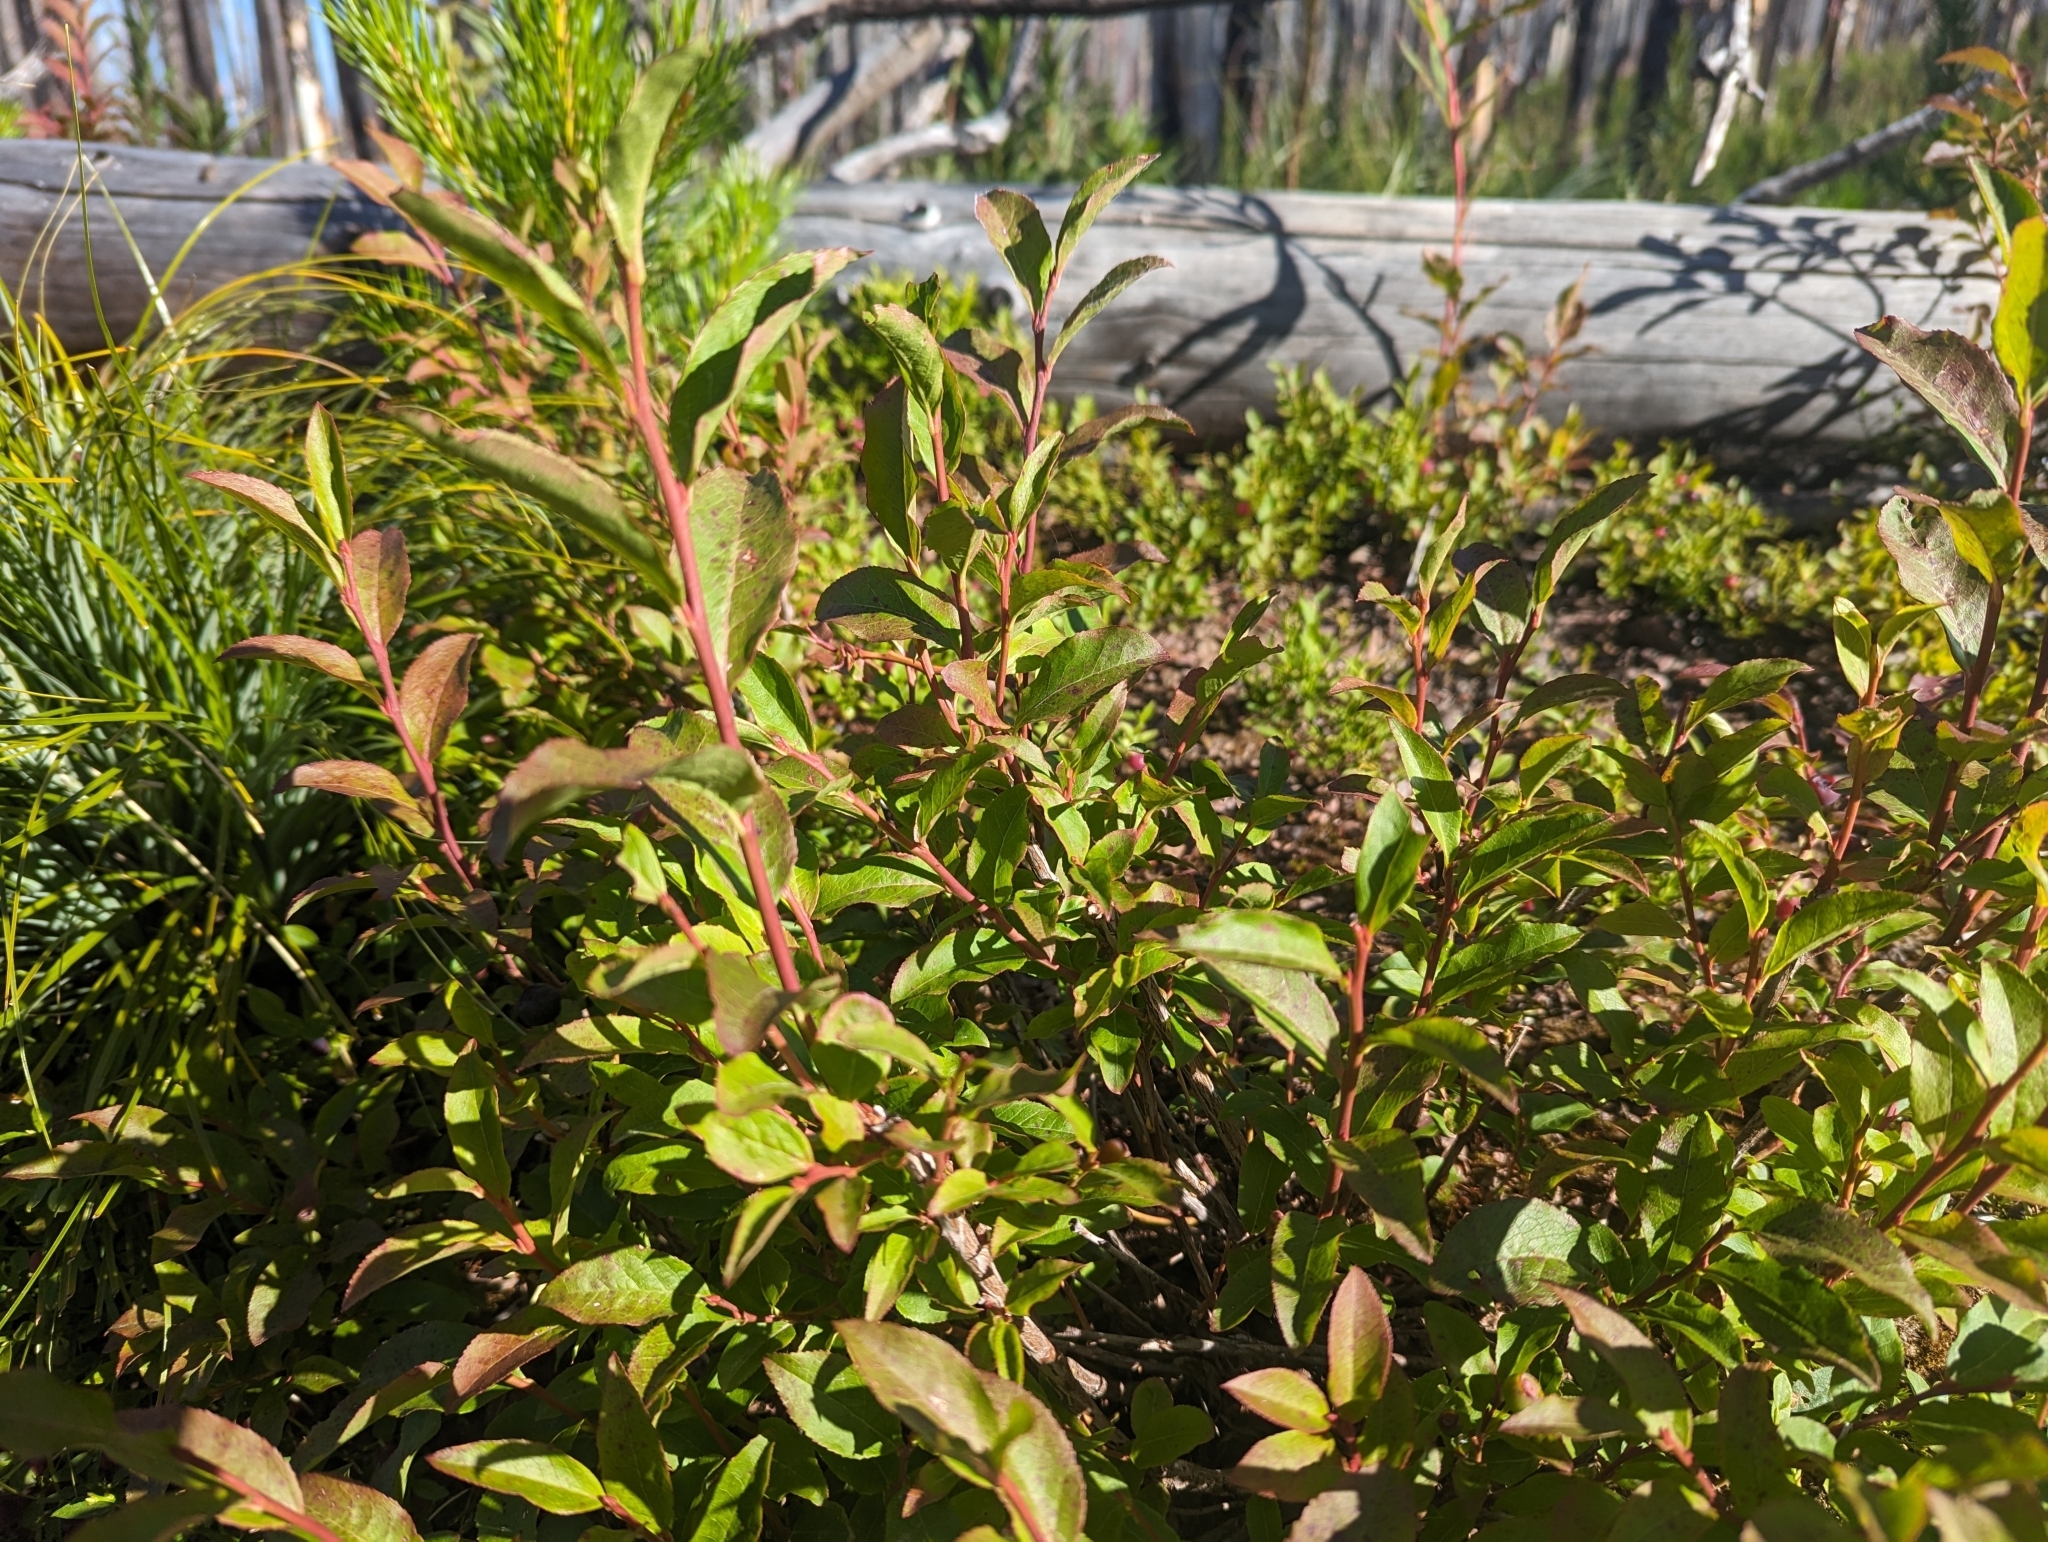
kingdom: Plantae
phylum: Tracheophyta
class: Magnoliopsida
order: Ericales
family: Ericaceae
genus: Vaccinium
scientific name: Vaccinium membranaceum
